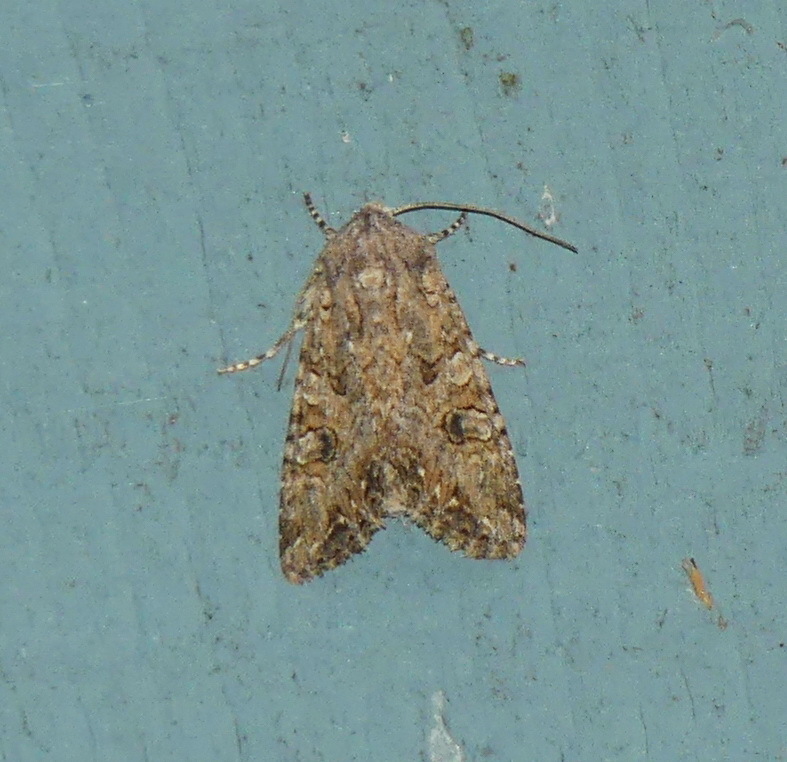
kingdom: Animalia
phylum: Arthropoda
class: Insecta
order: Lepidoptera
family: Noctuidae
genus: Anarta
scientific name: Anarta trifolii
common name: Clover cutworm moth
